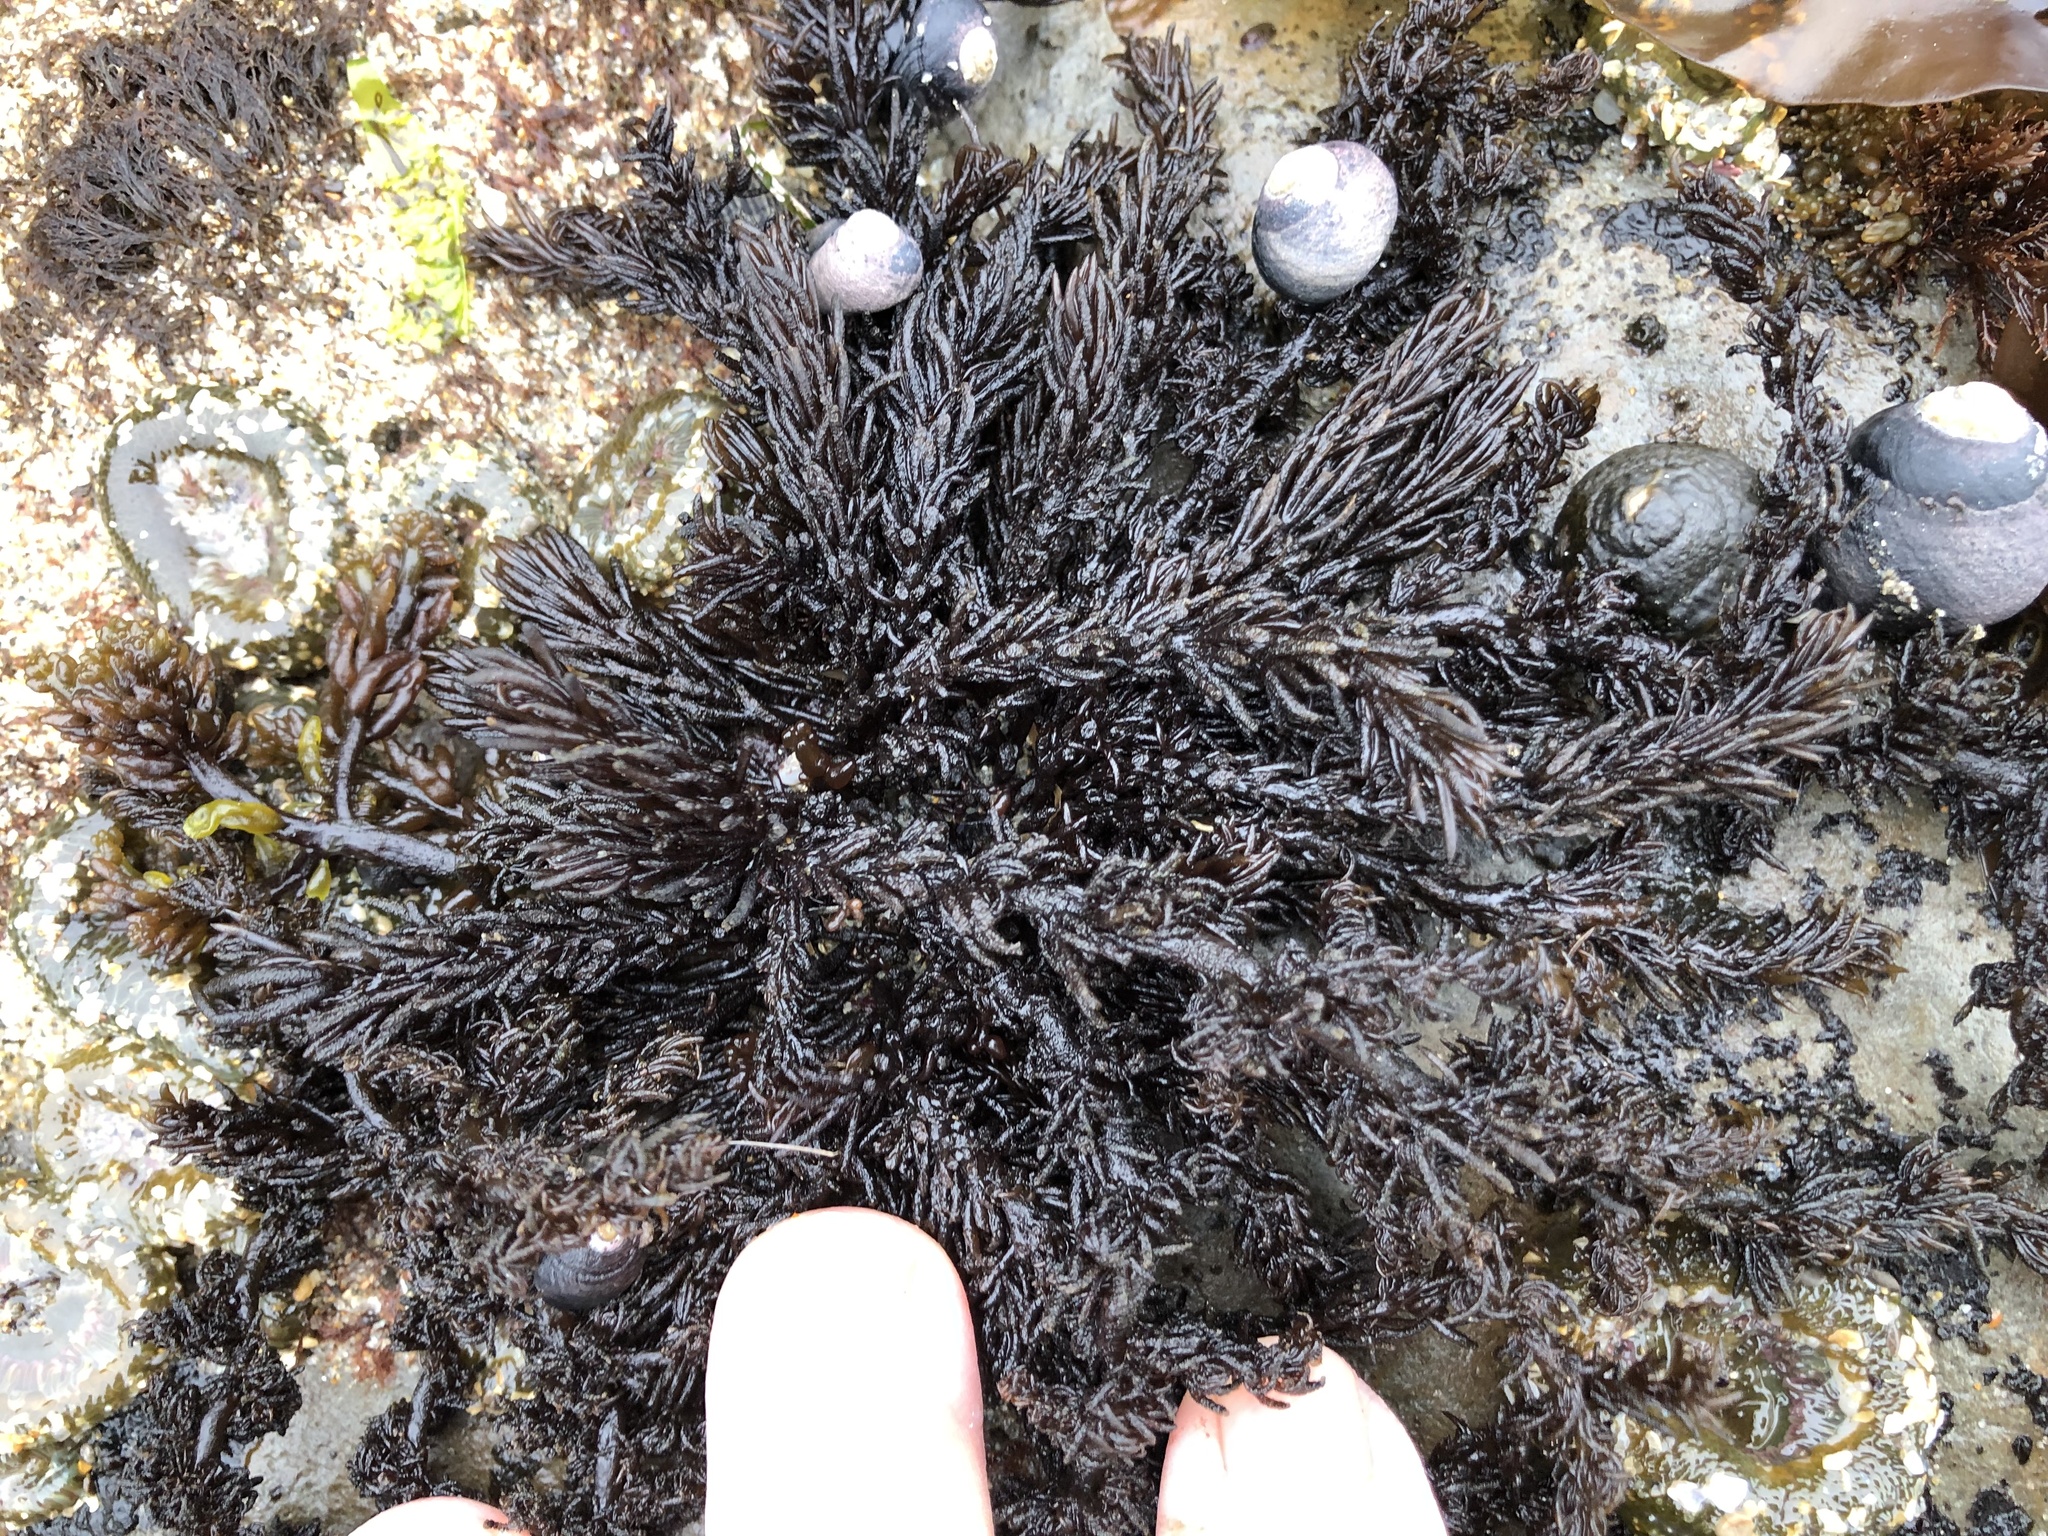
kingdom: Plantae
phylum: Rhodophyta
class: Florideophyceae
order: Ceramiales
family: Rhodomelaceae
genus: Neorhodomela
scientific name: Neorhodomela larix
